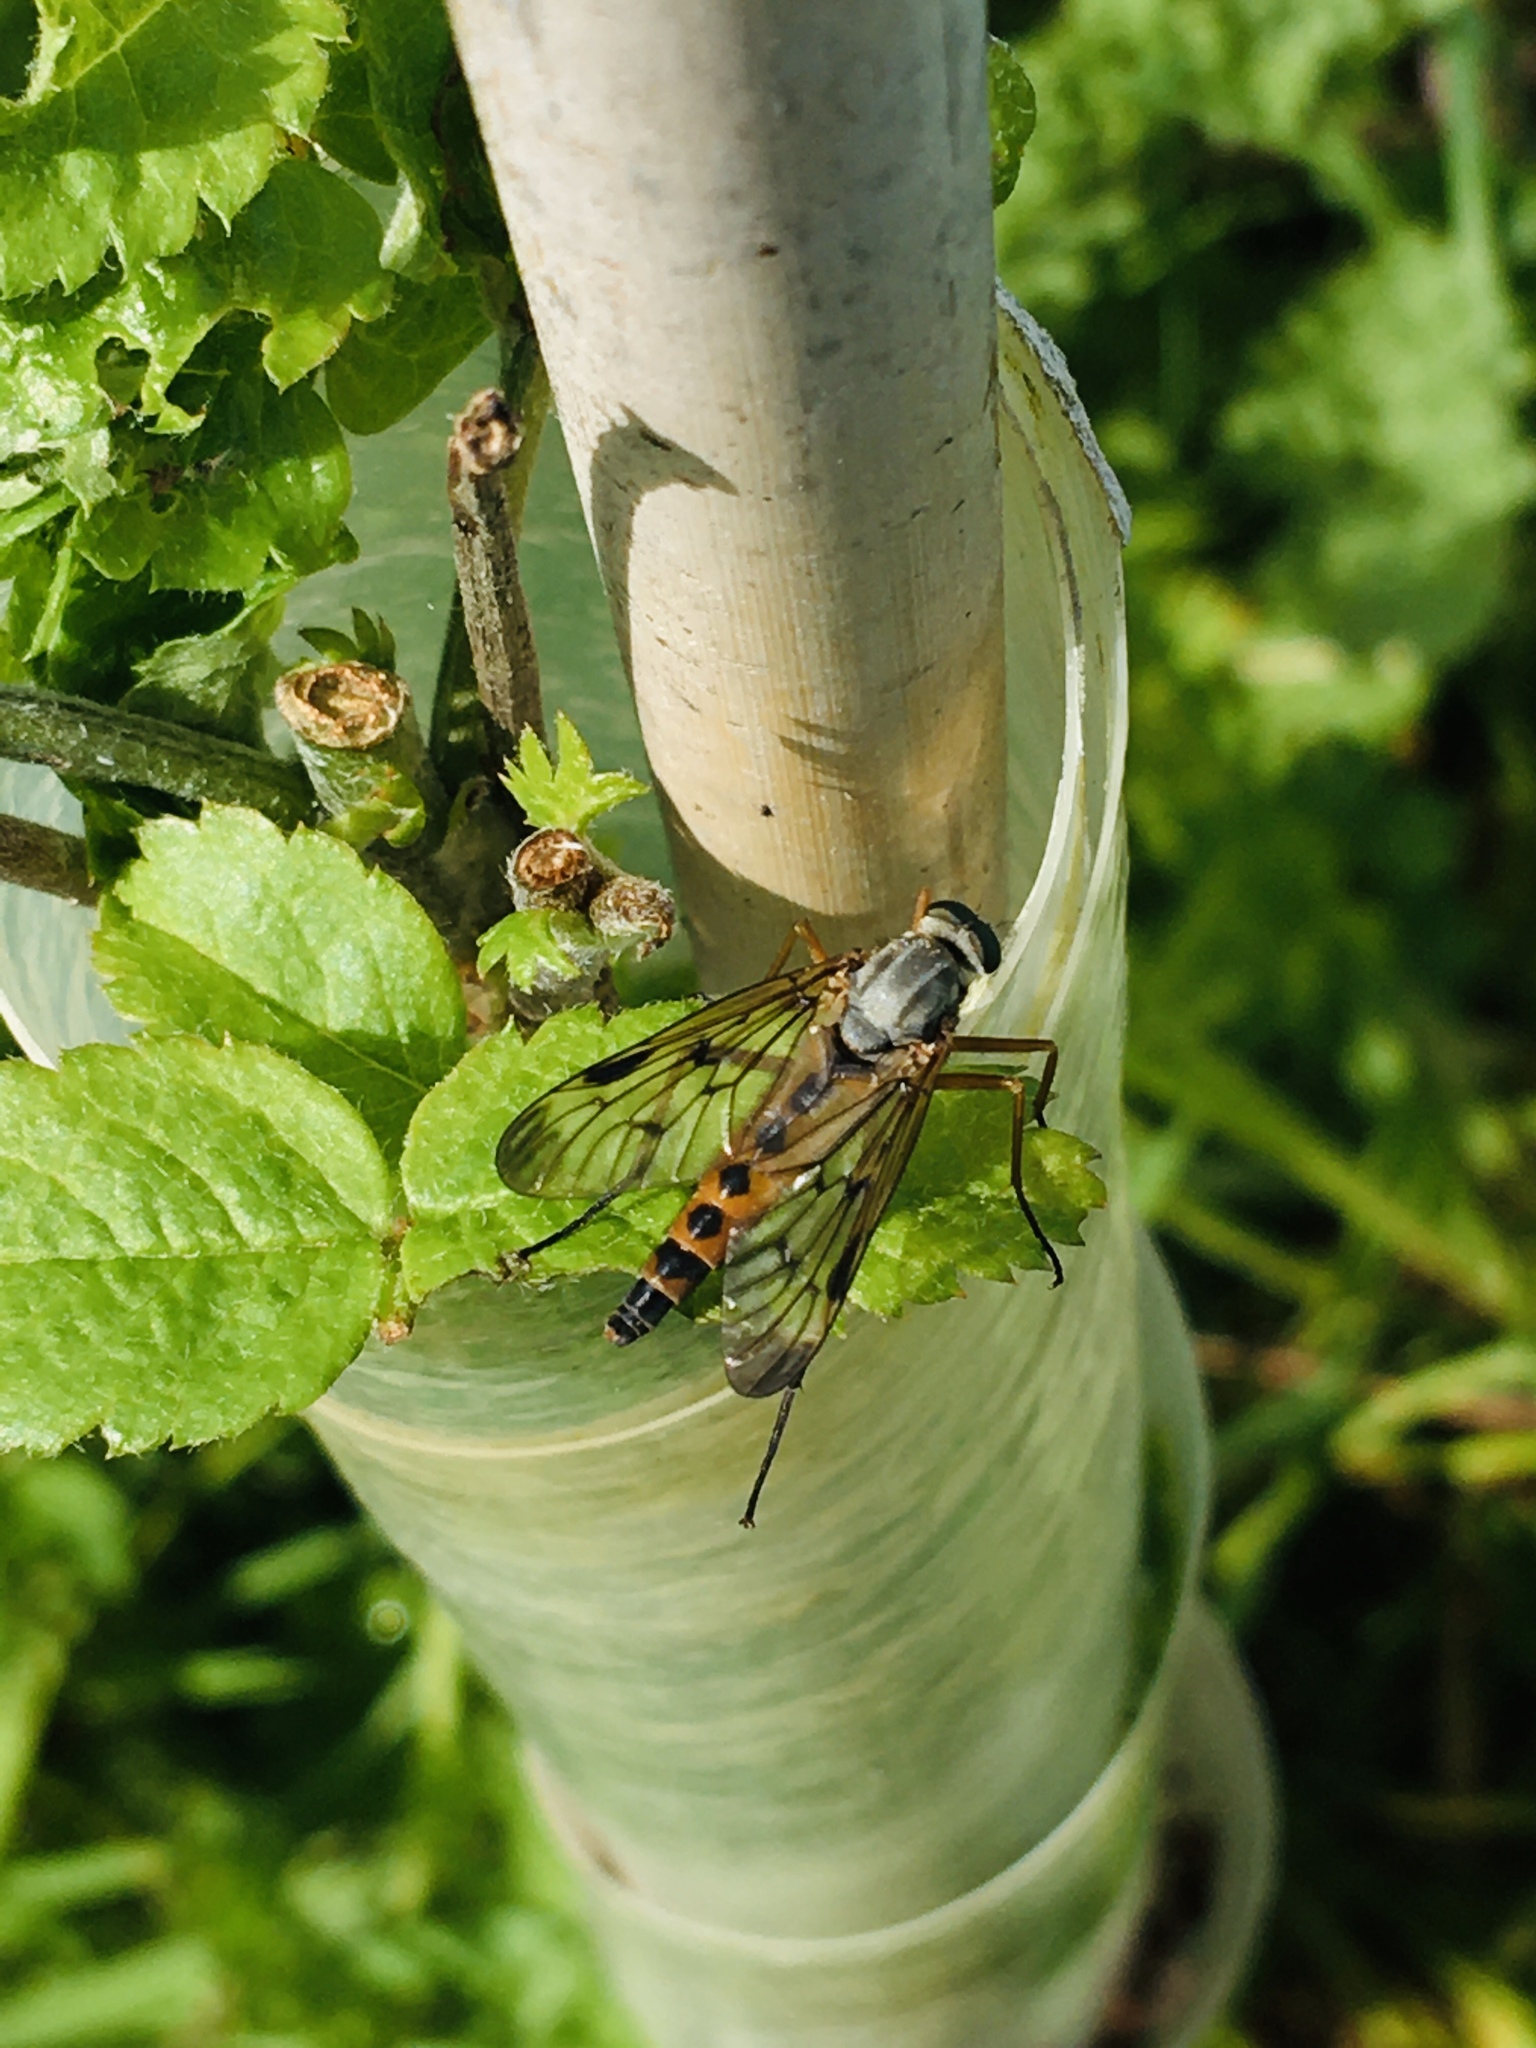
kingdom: Animalia
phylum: Arthropoda
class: Insecta
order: Diptera
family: Rhagionidae
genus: Rhagio
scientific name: Rhagio scolopacea
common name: Downlooker snipefly
